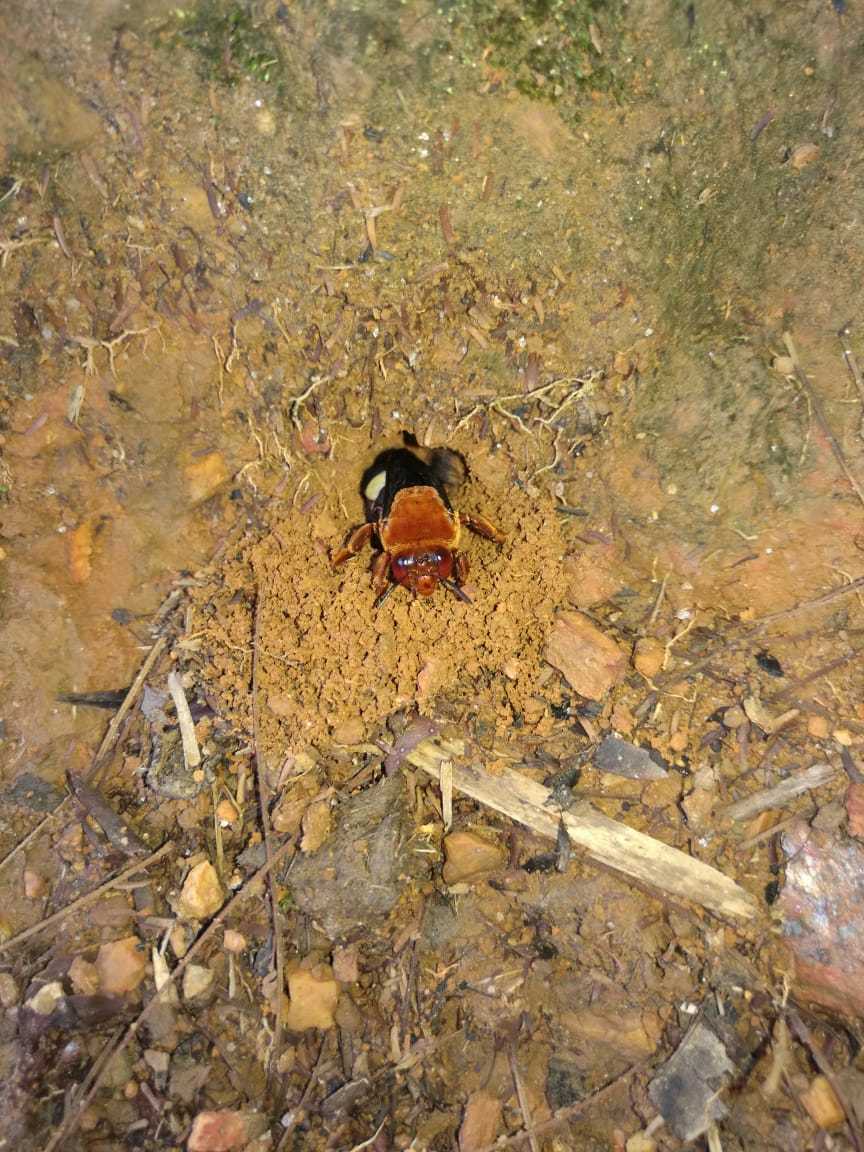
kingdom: Animalia
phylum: Arthropoda
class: Insecta
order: Hymenoptera
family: Apidae
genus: Centris
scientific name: Centris laticincta
